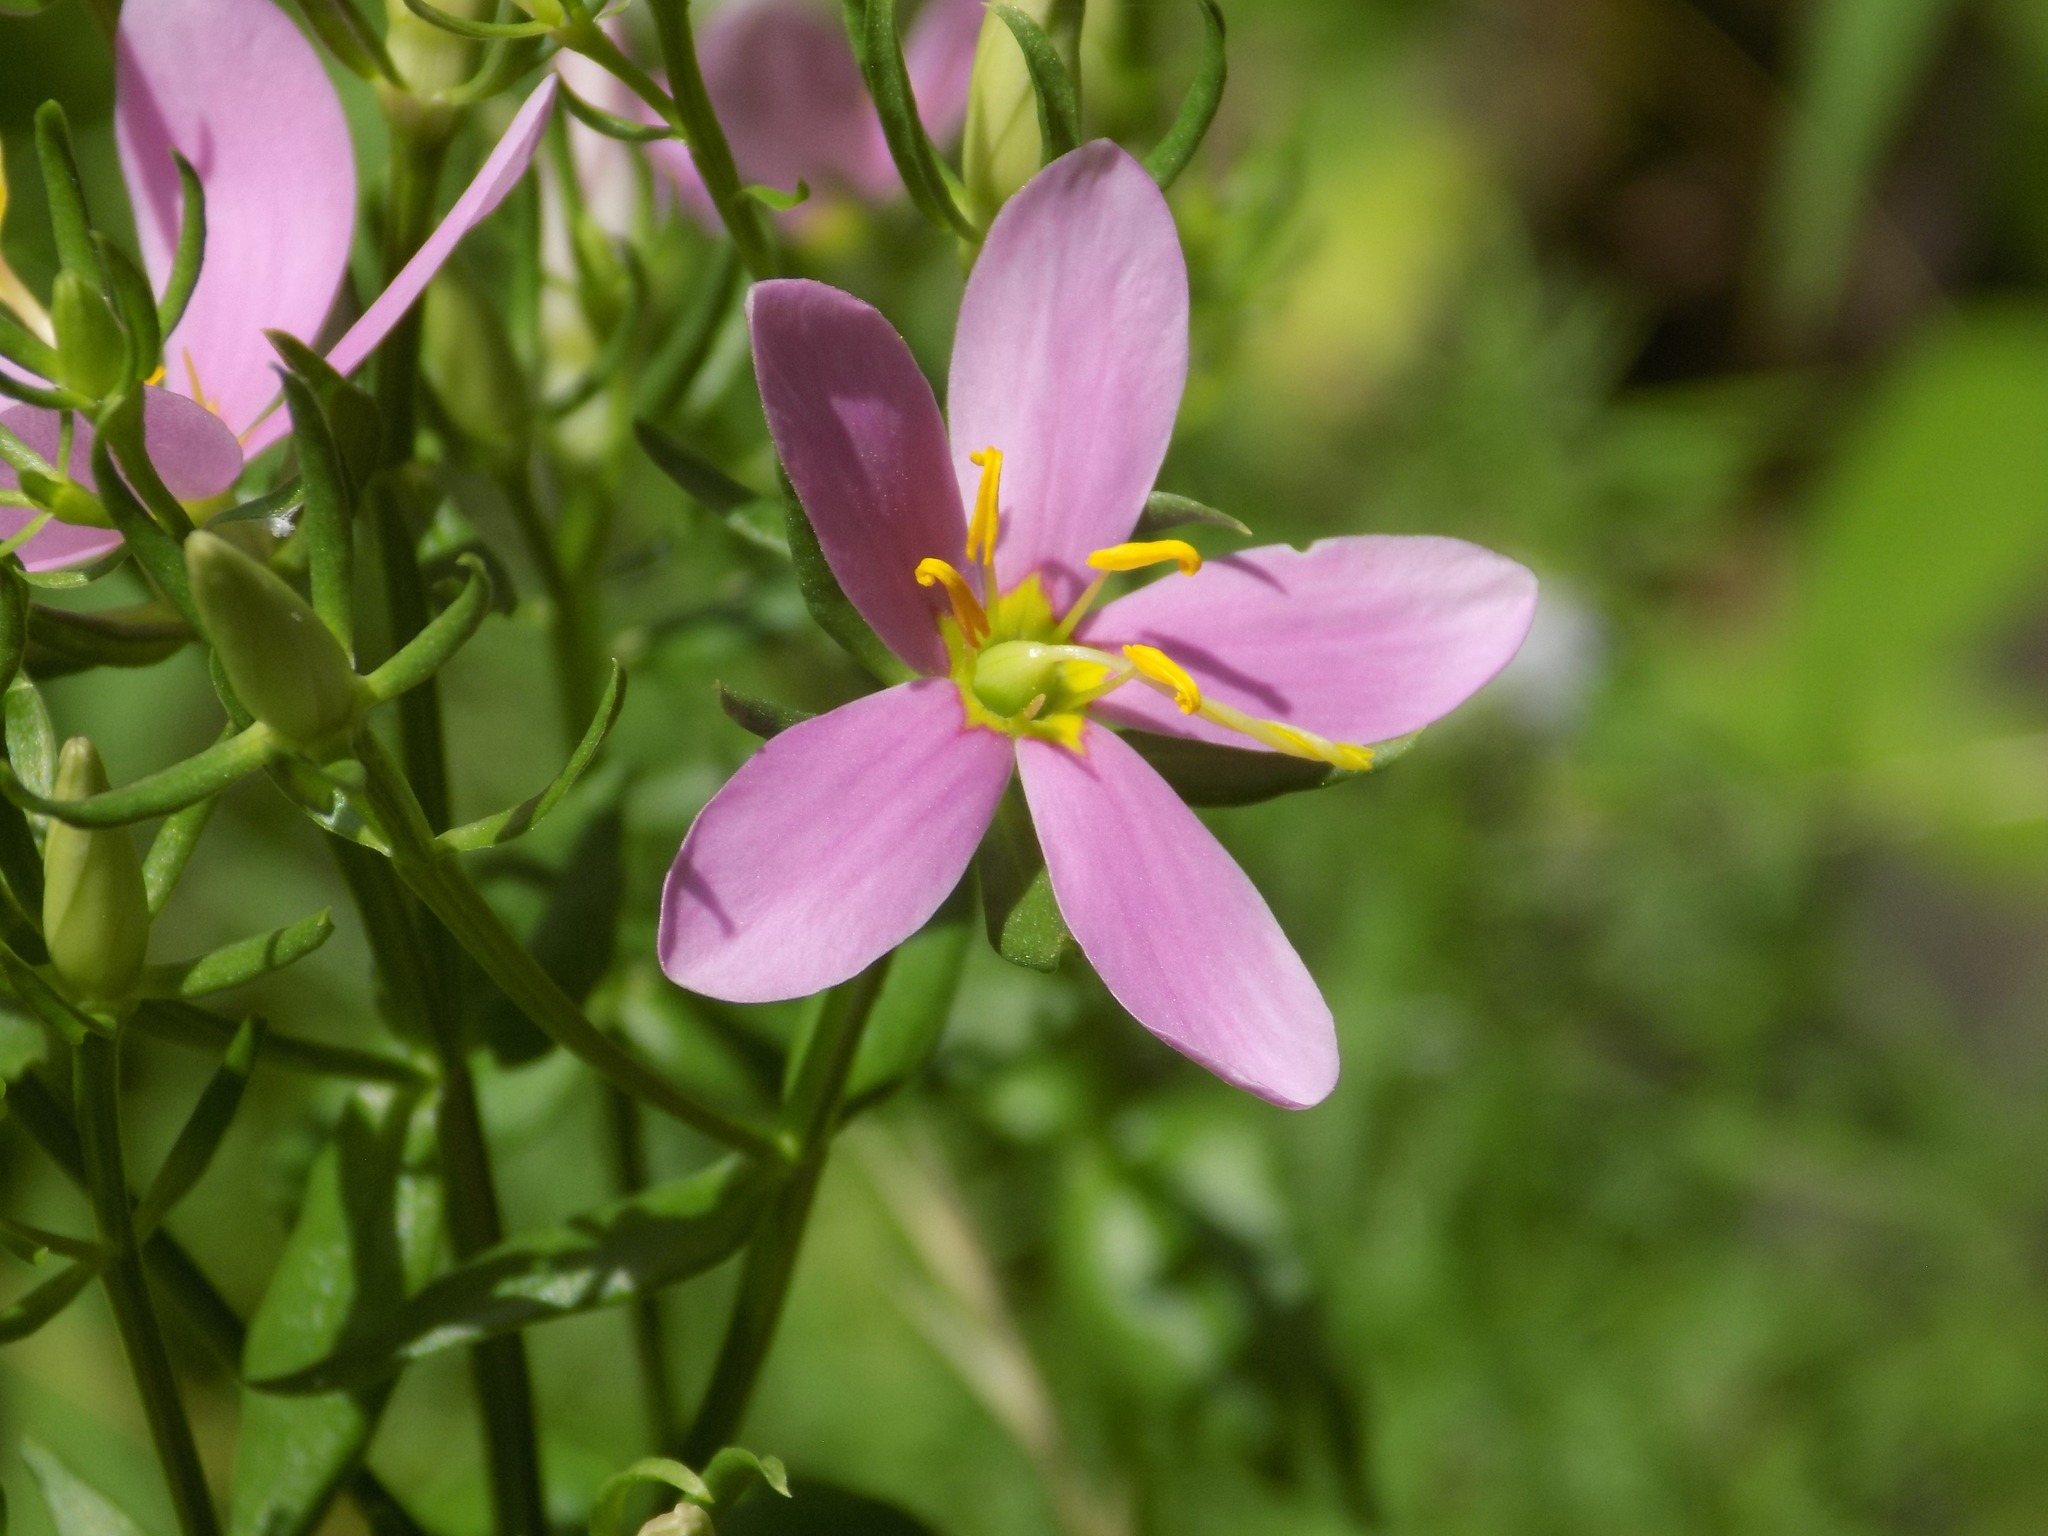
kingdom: Plantae
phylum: Tracheophyta
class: Magnoliopsida
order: Gentianales
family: Gentianaceae
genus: Sabatia
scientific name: Sabatia angularis
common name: Rose-pink
